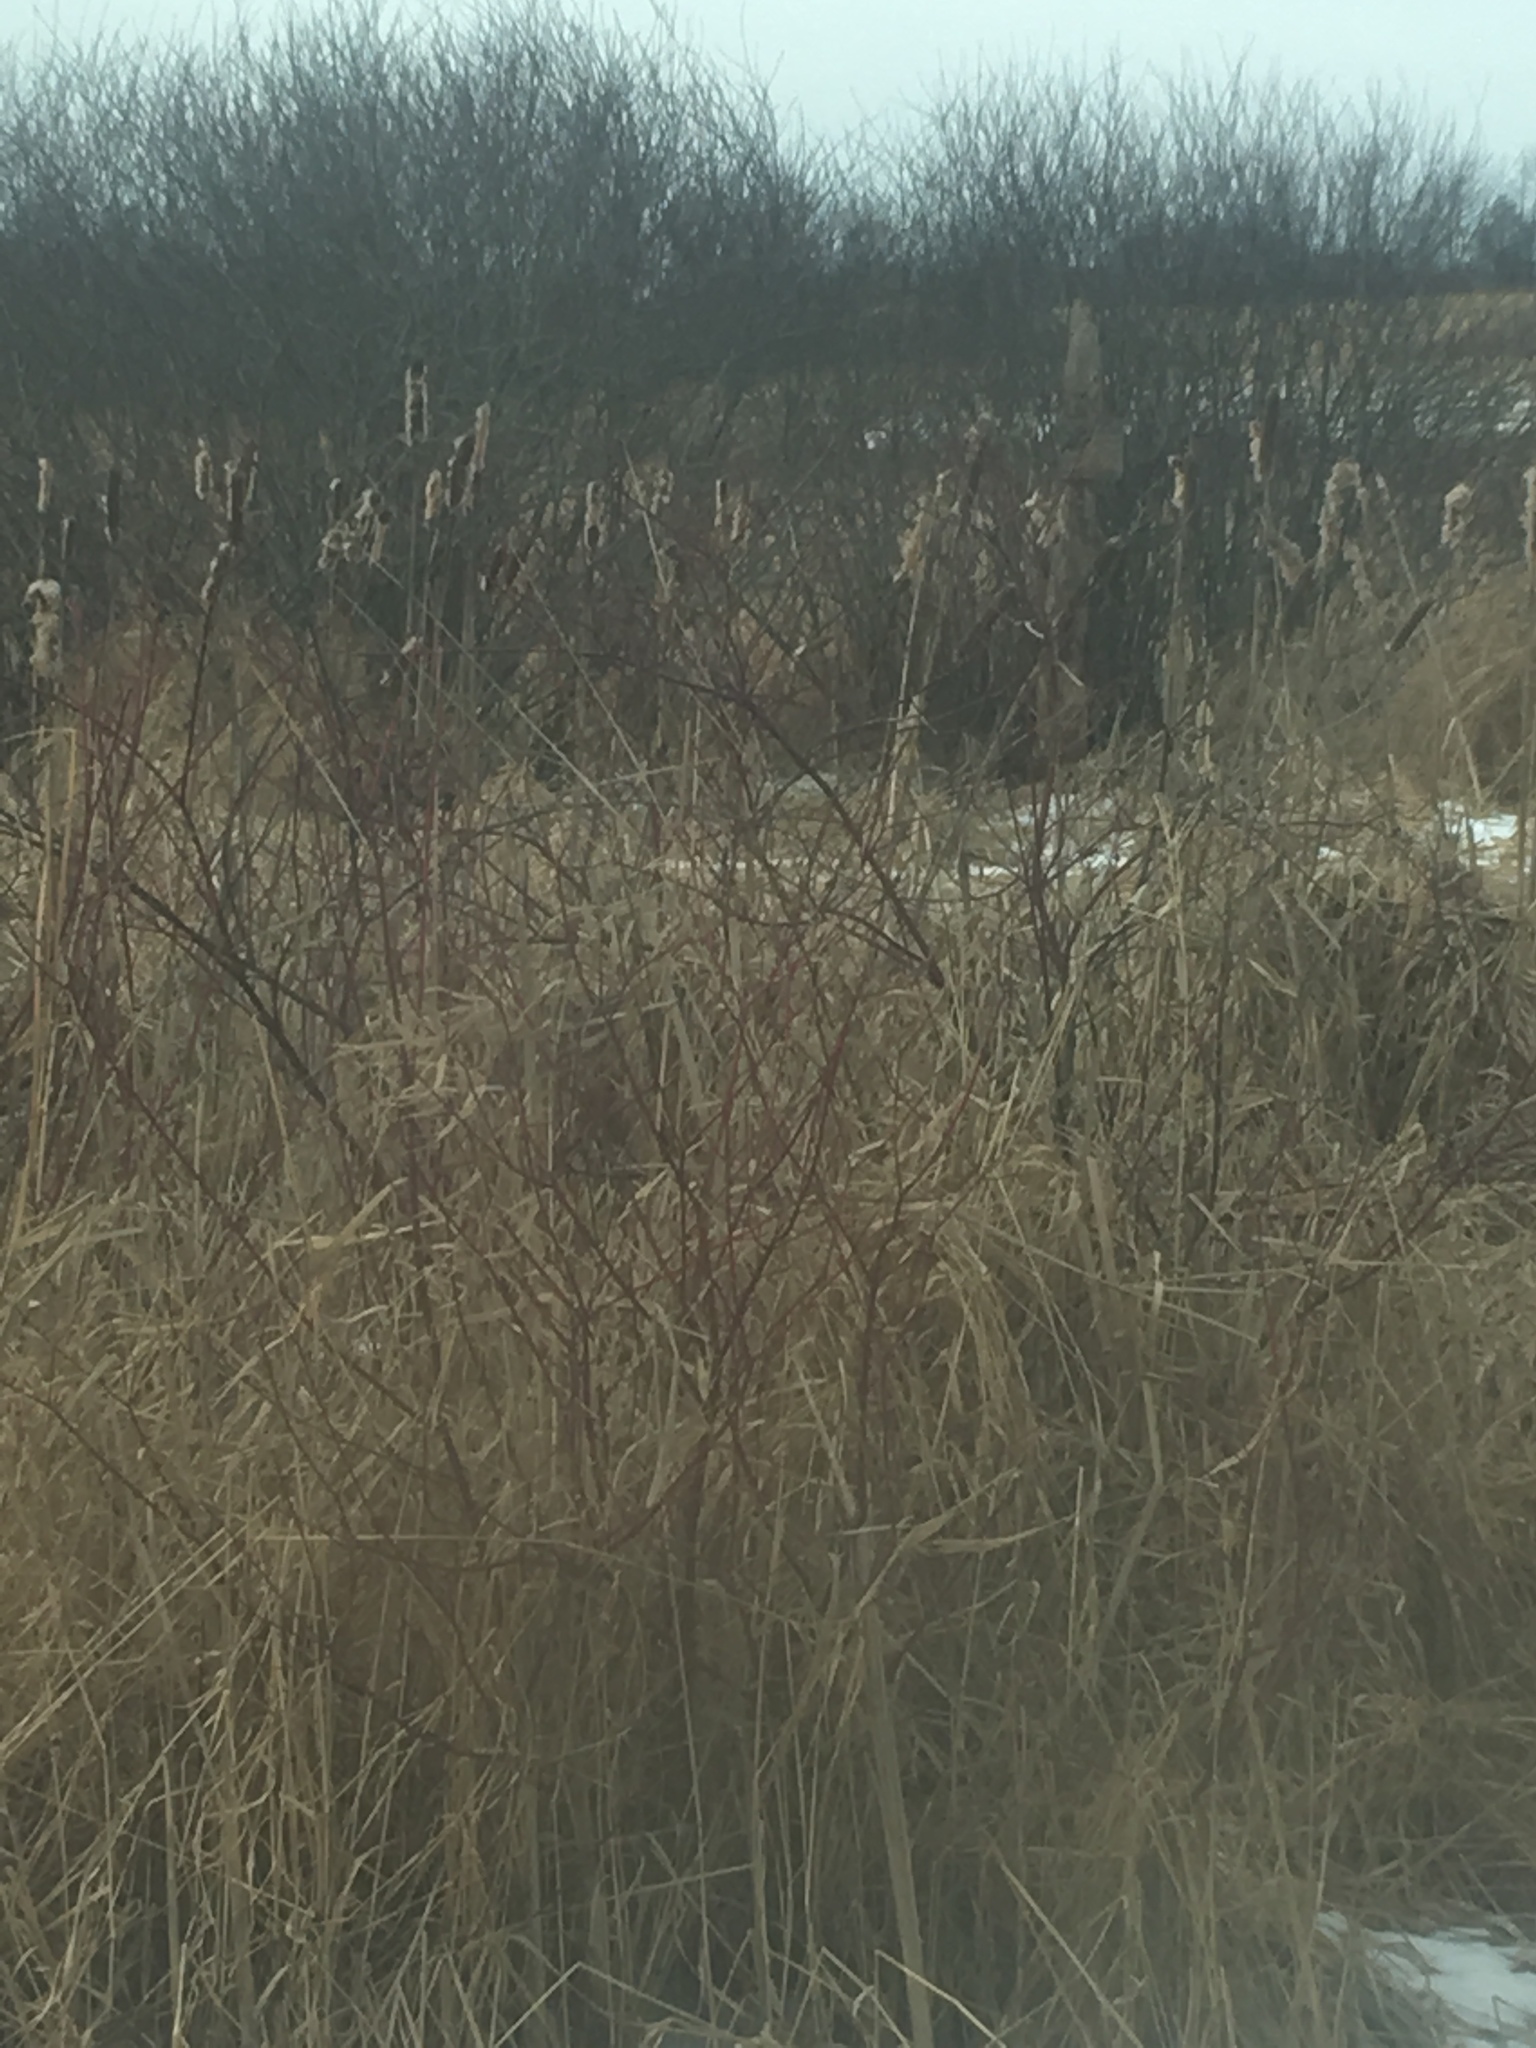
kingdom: Plantae
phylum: Tracheophyta
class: Liliopsida
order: Poales
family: Typhaceae
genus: Typha
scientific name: Typha
